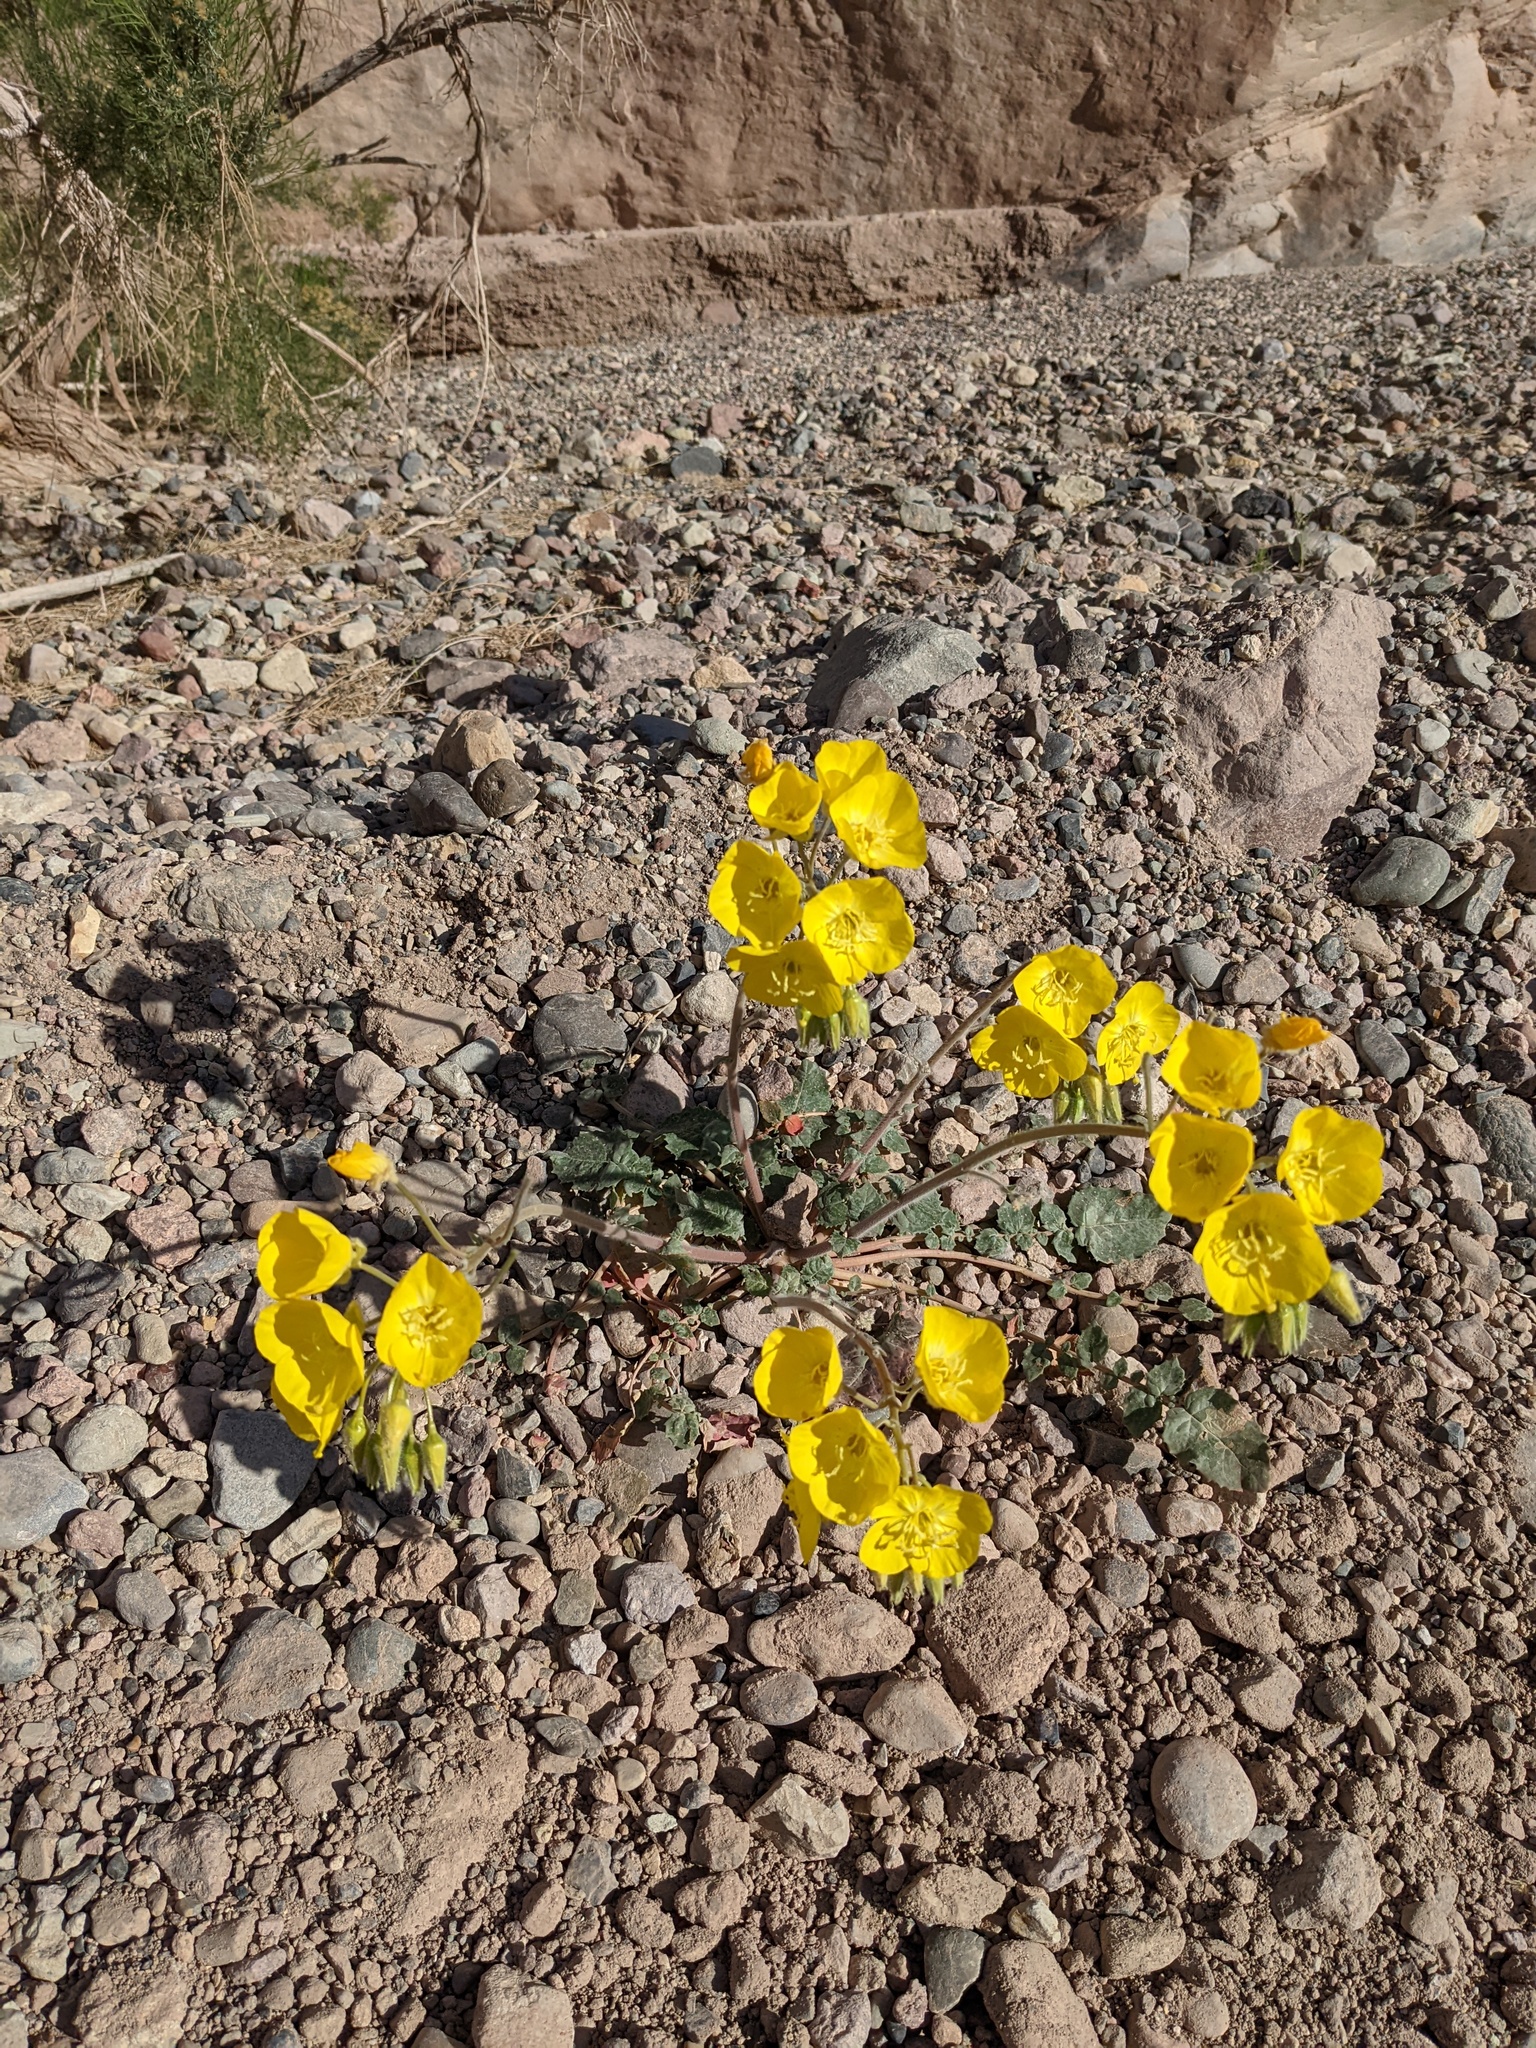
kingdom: Plantae
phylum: Tracheophyta
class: Magnoliopsida
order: Myrtales
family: Onagraceae
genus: Chylismia
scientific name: Chylismia brevipes
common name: Yellow cups
